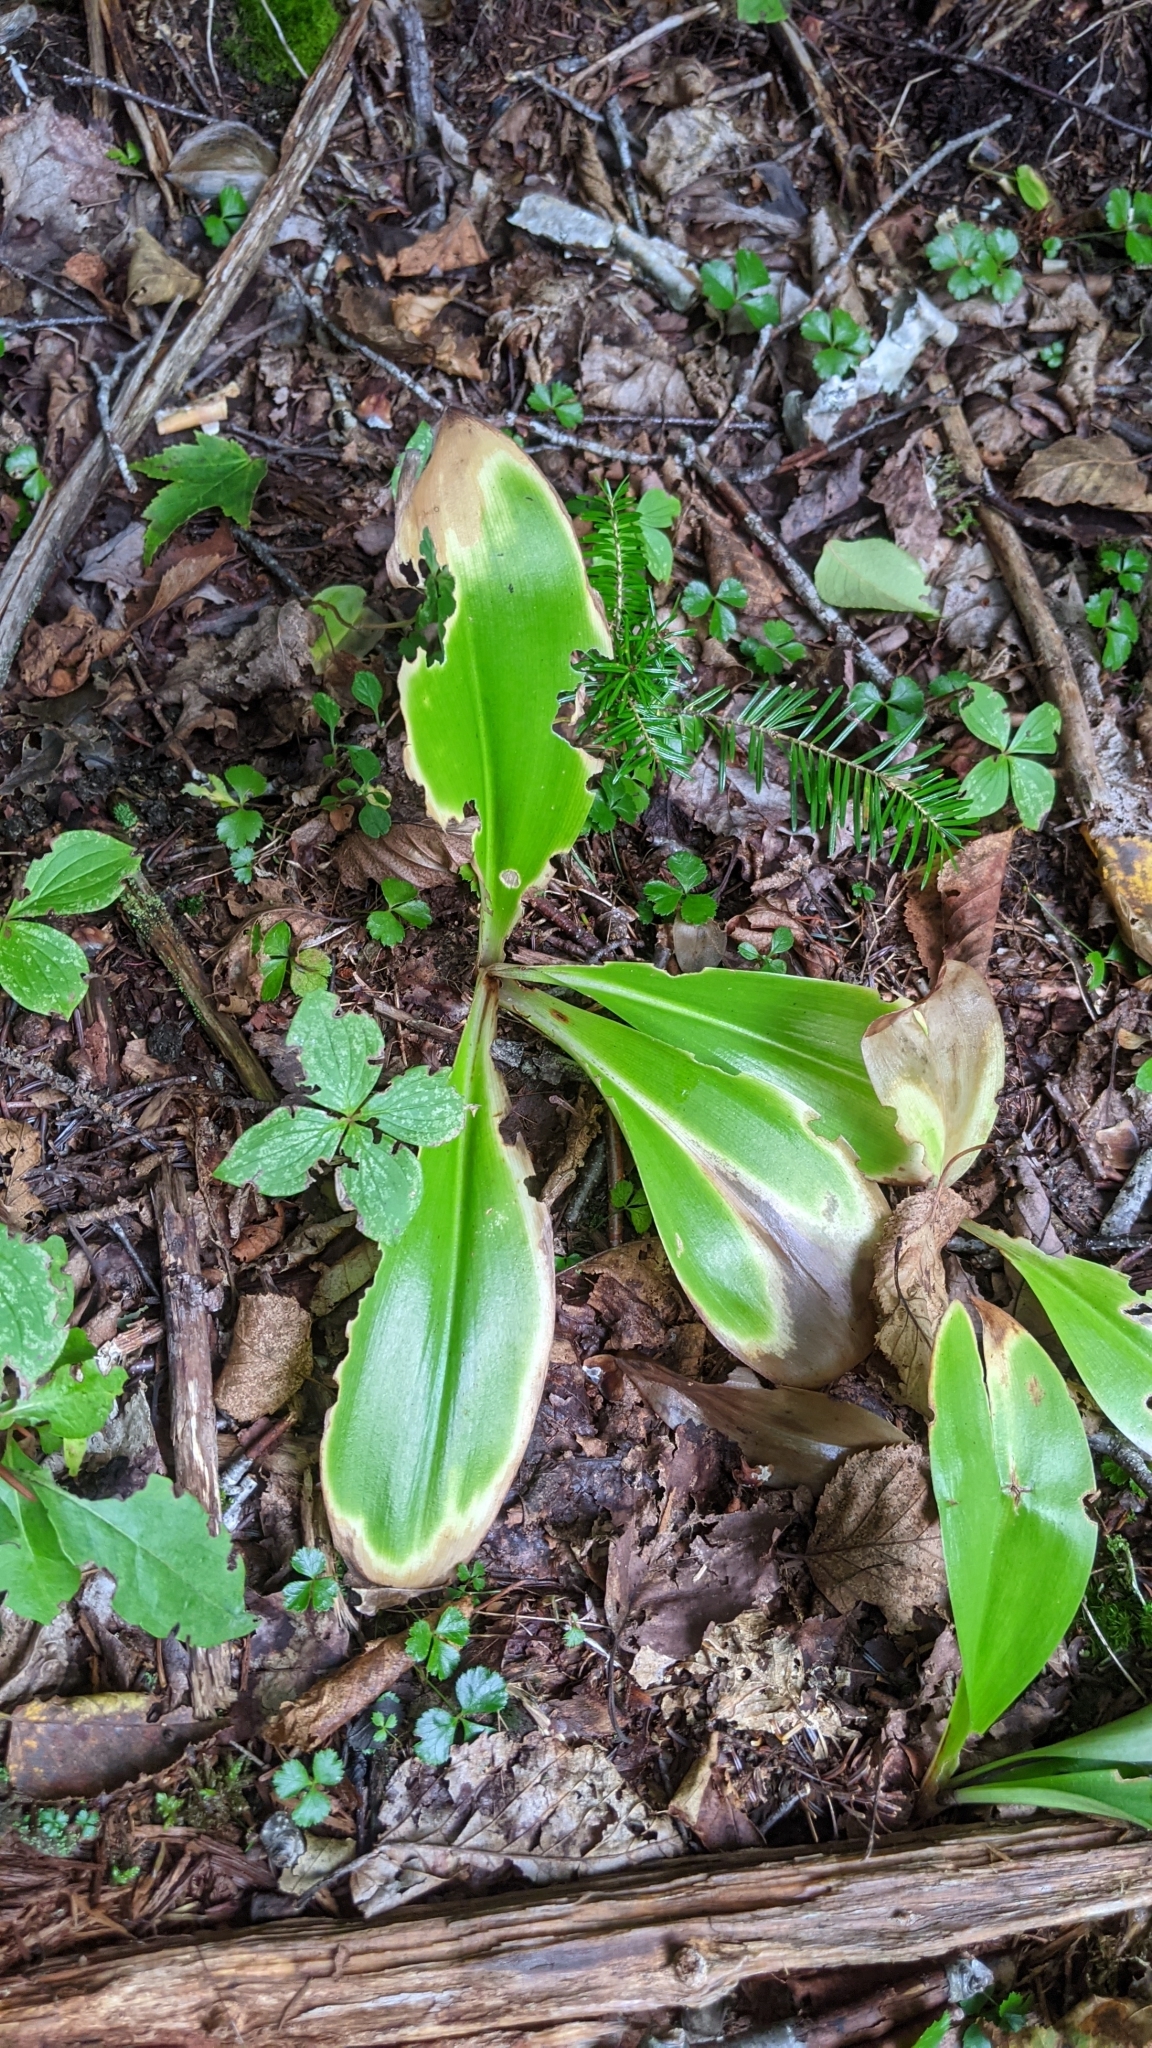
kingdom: Plantae
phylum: Tracheophyta
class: Liliopsida
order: Liliales
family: Liliaceae
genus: Clintonia
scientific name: Clintonia borealis
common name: Yellow clintonia
